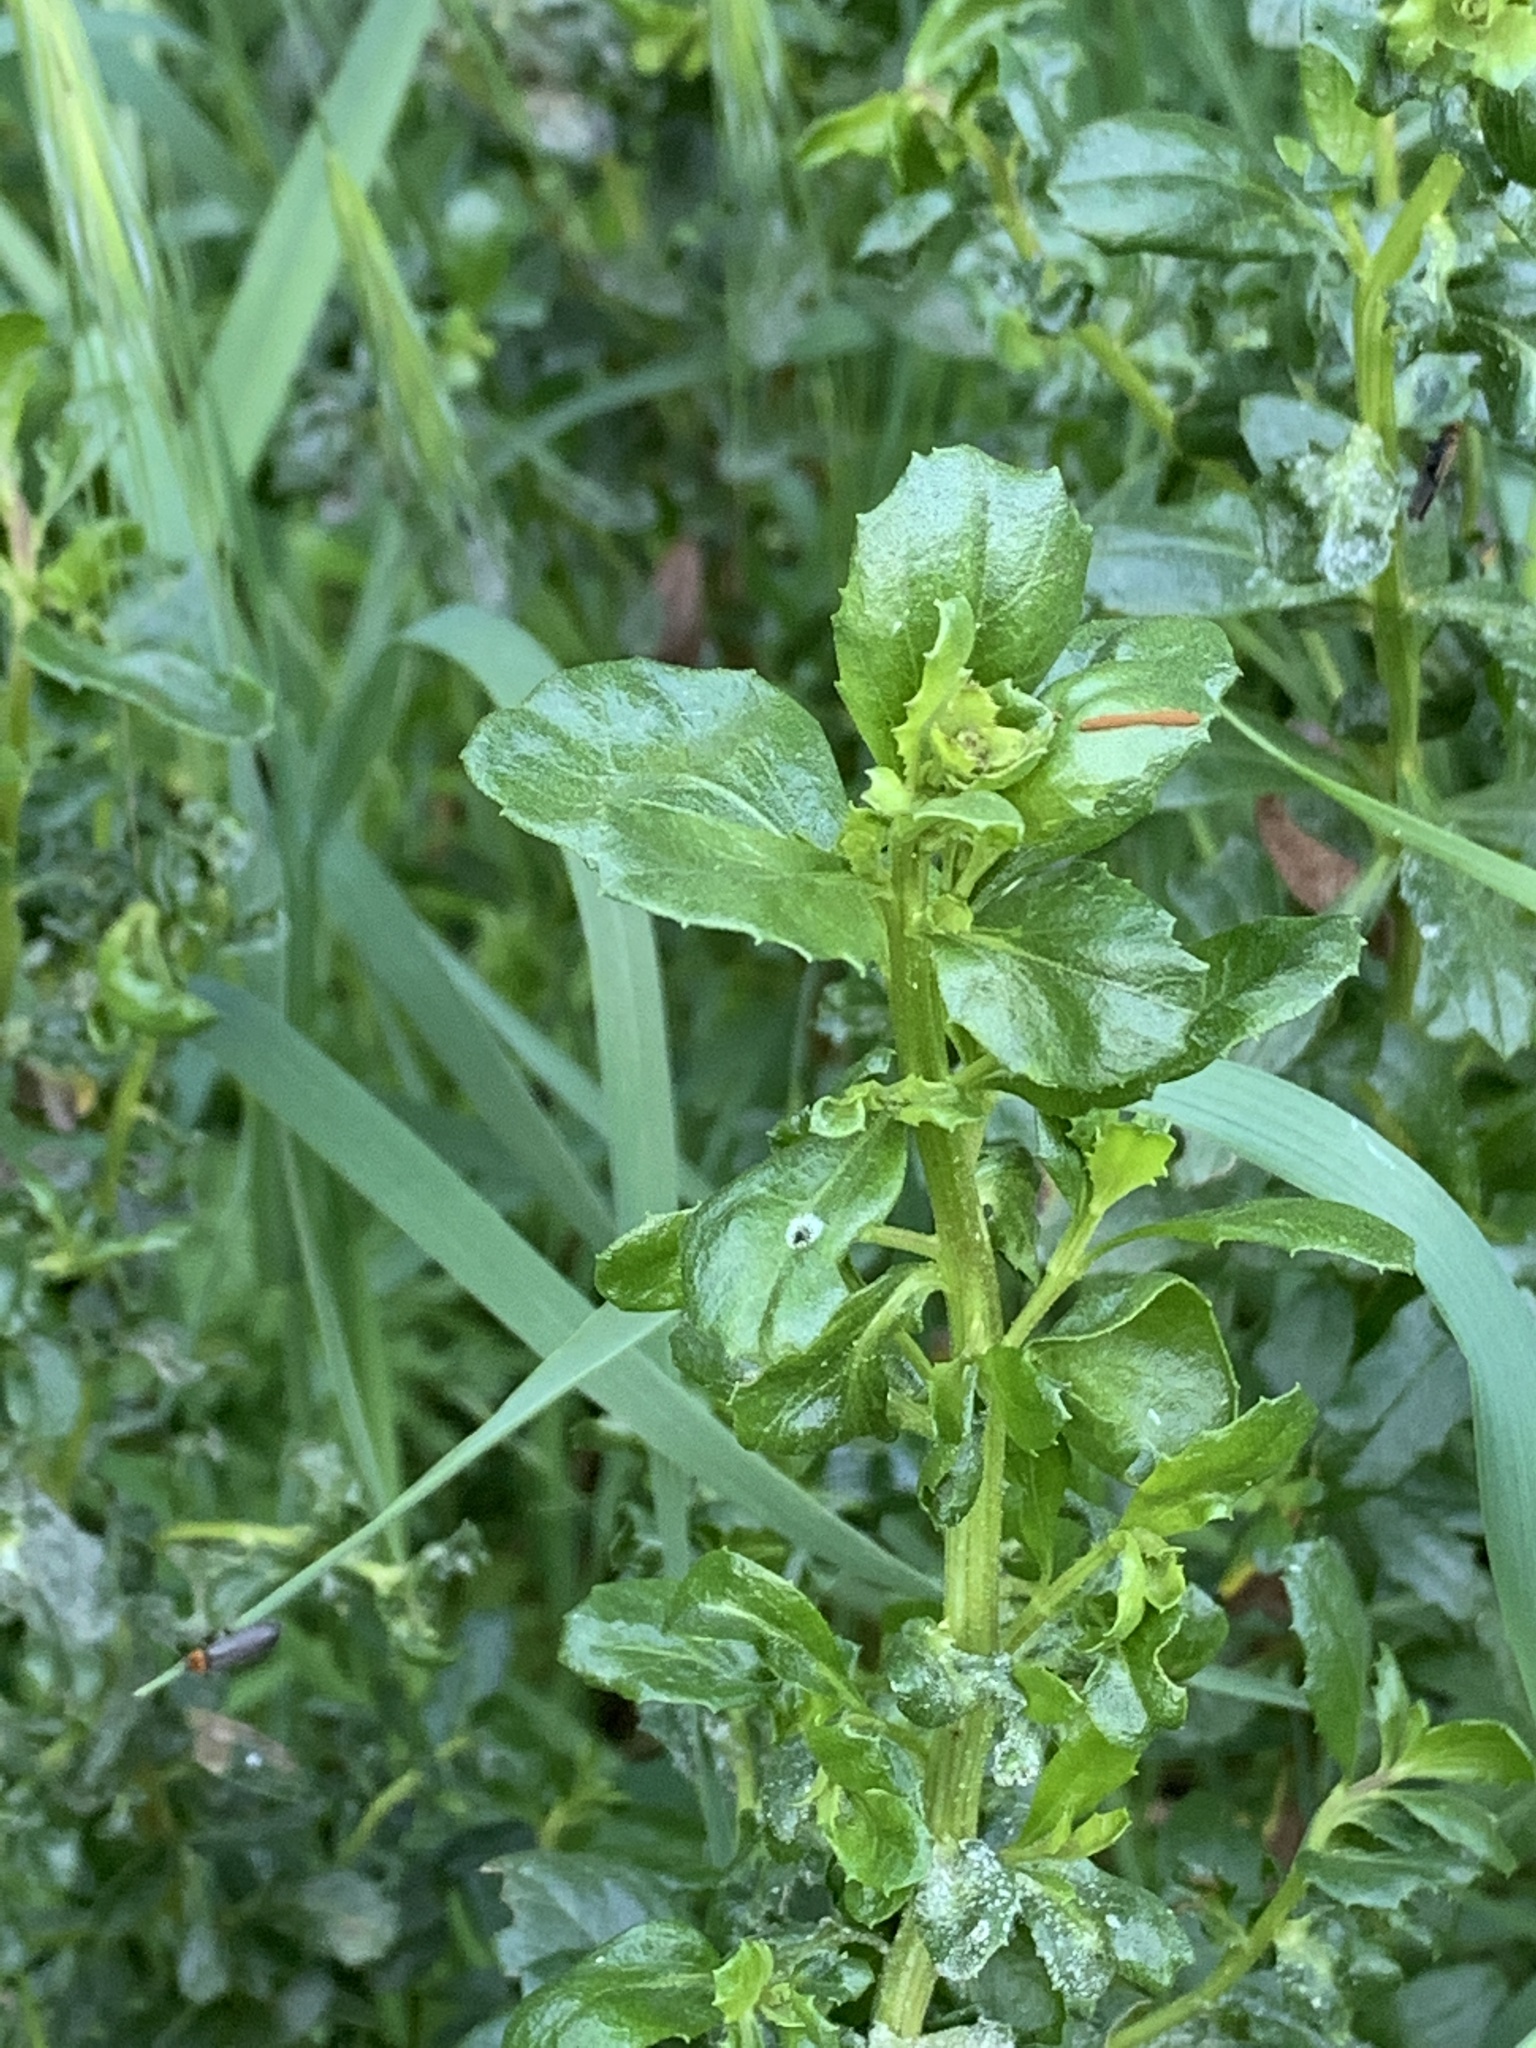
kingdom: Plantae
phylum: Tracheophyta
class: Magnoliopsida
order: Asterales
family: Asteraceae
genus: Baccharis
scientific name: Baccharis pilularis
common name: Coyotebrush
